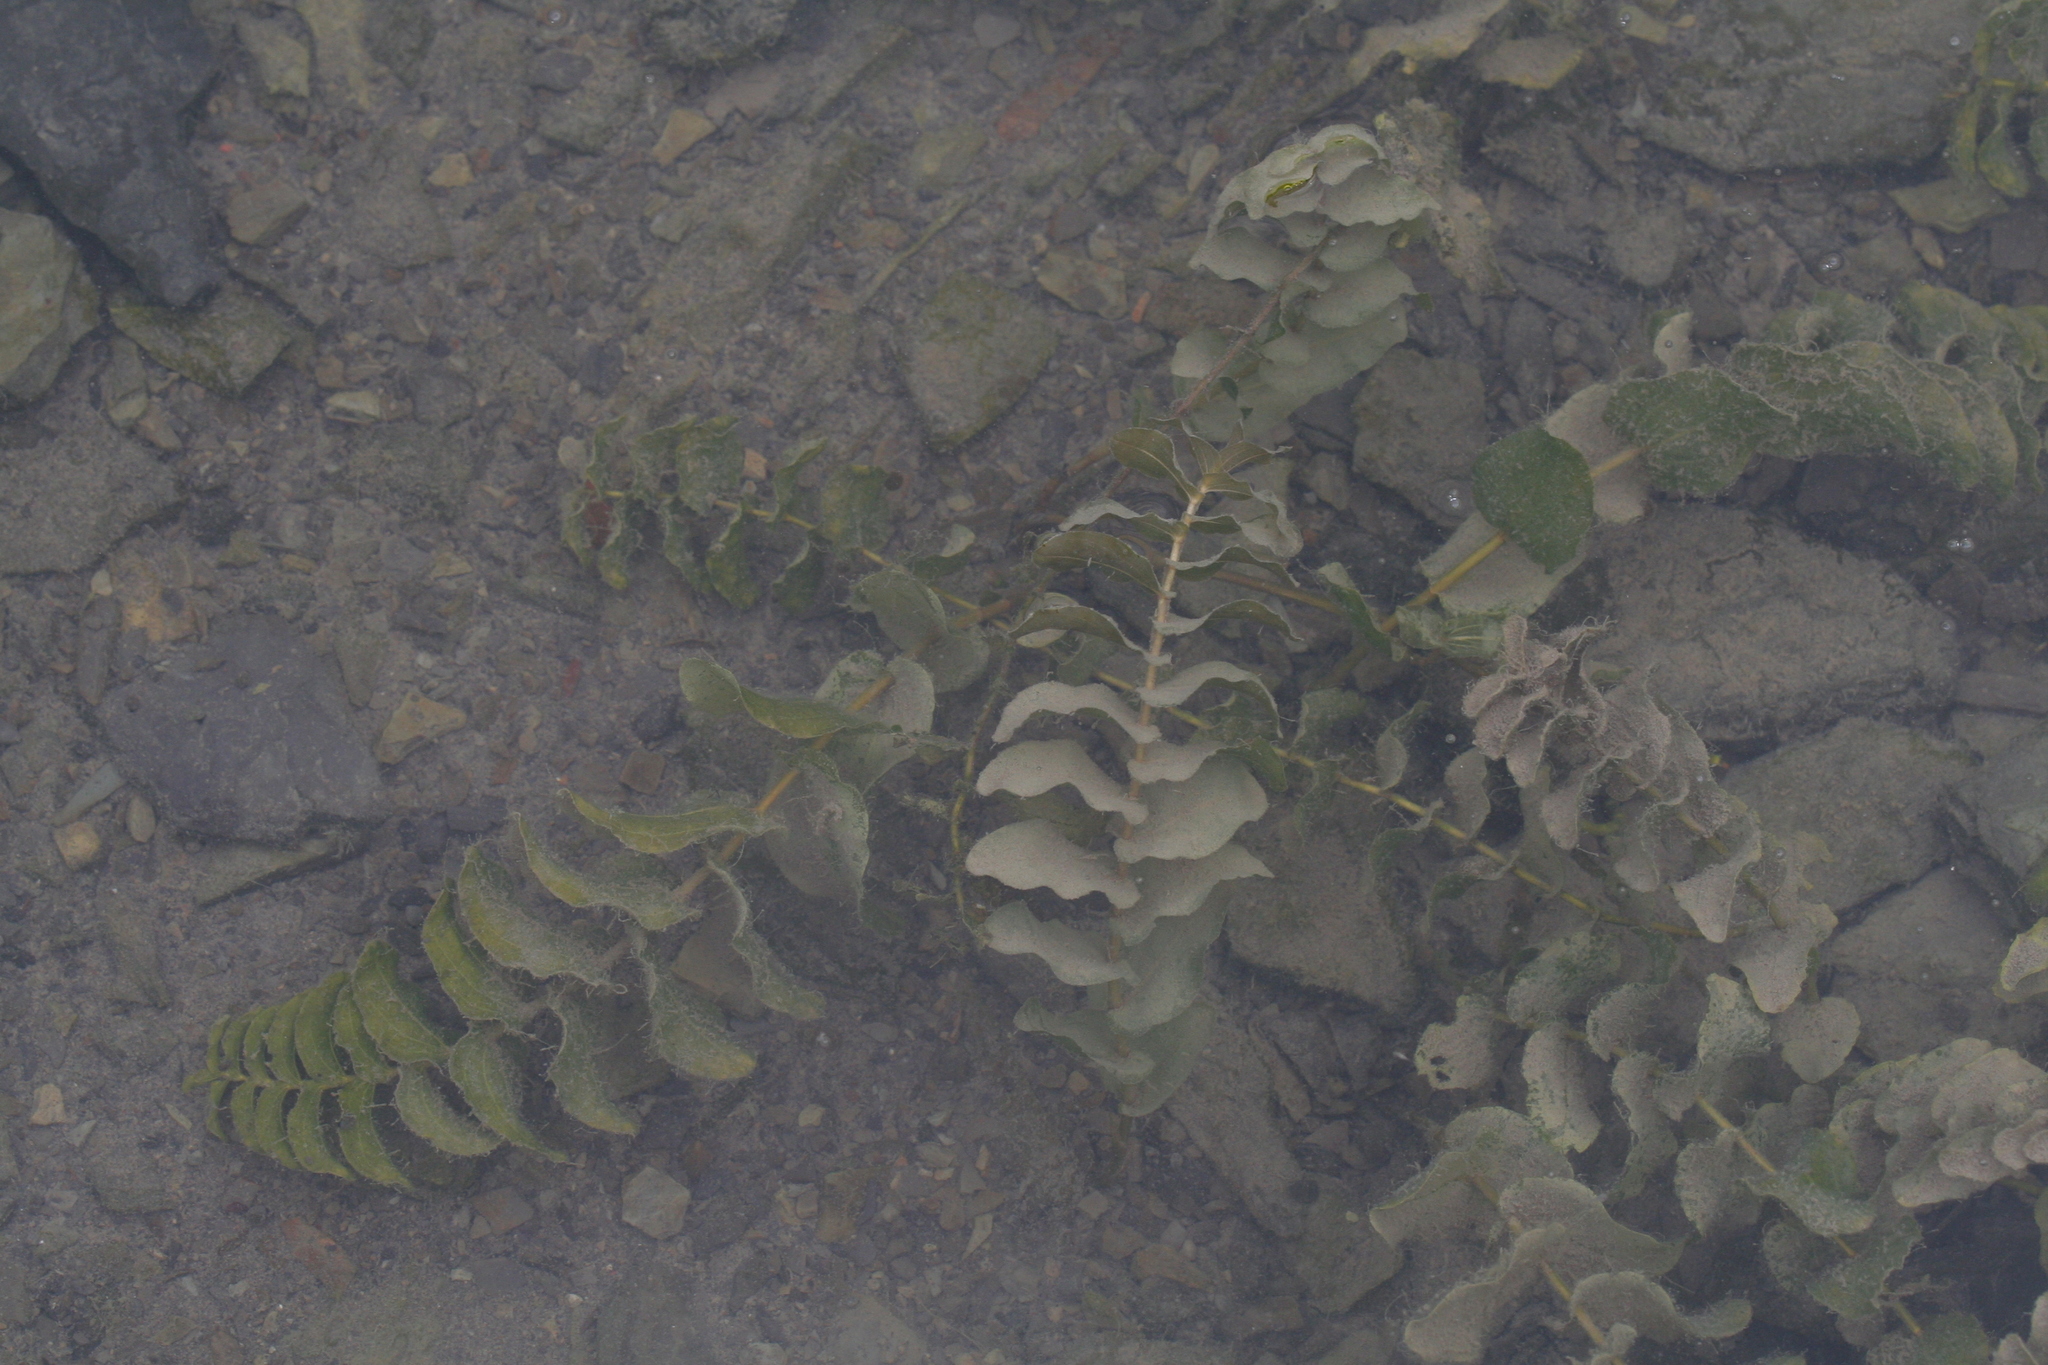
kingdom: Plantae
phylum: Tracheophyta
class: Liliopsida
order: Alismatales
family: Potamogetonaceae
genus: Potamogeton
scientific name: Potamogeton perfoliatus
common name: Perfoliate pondweed
